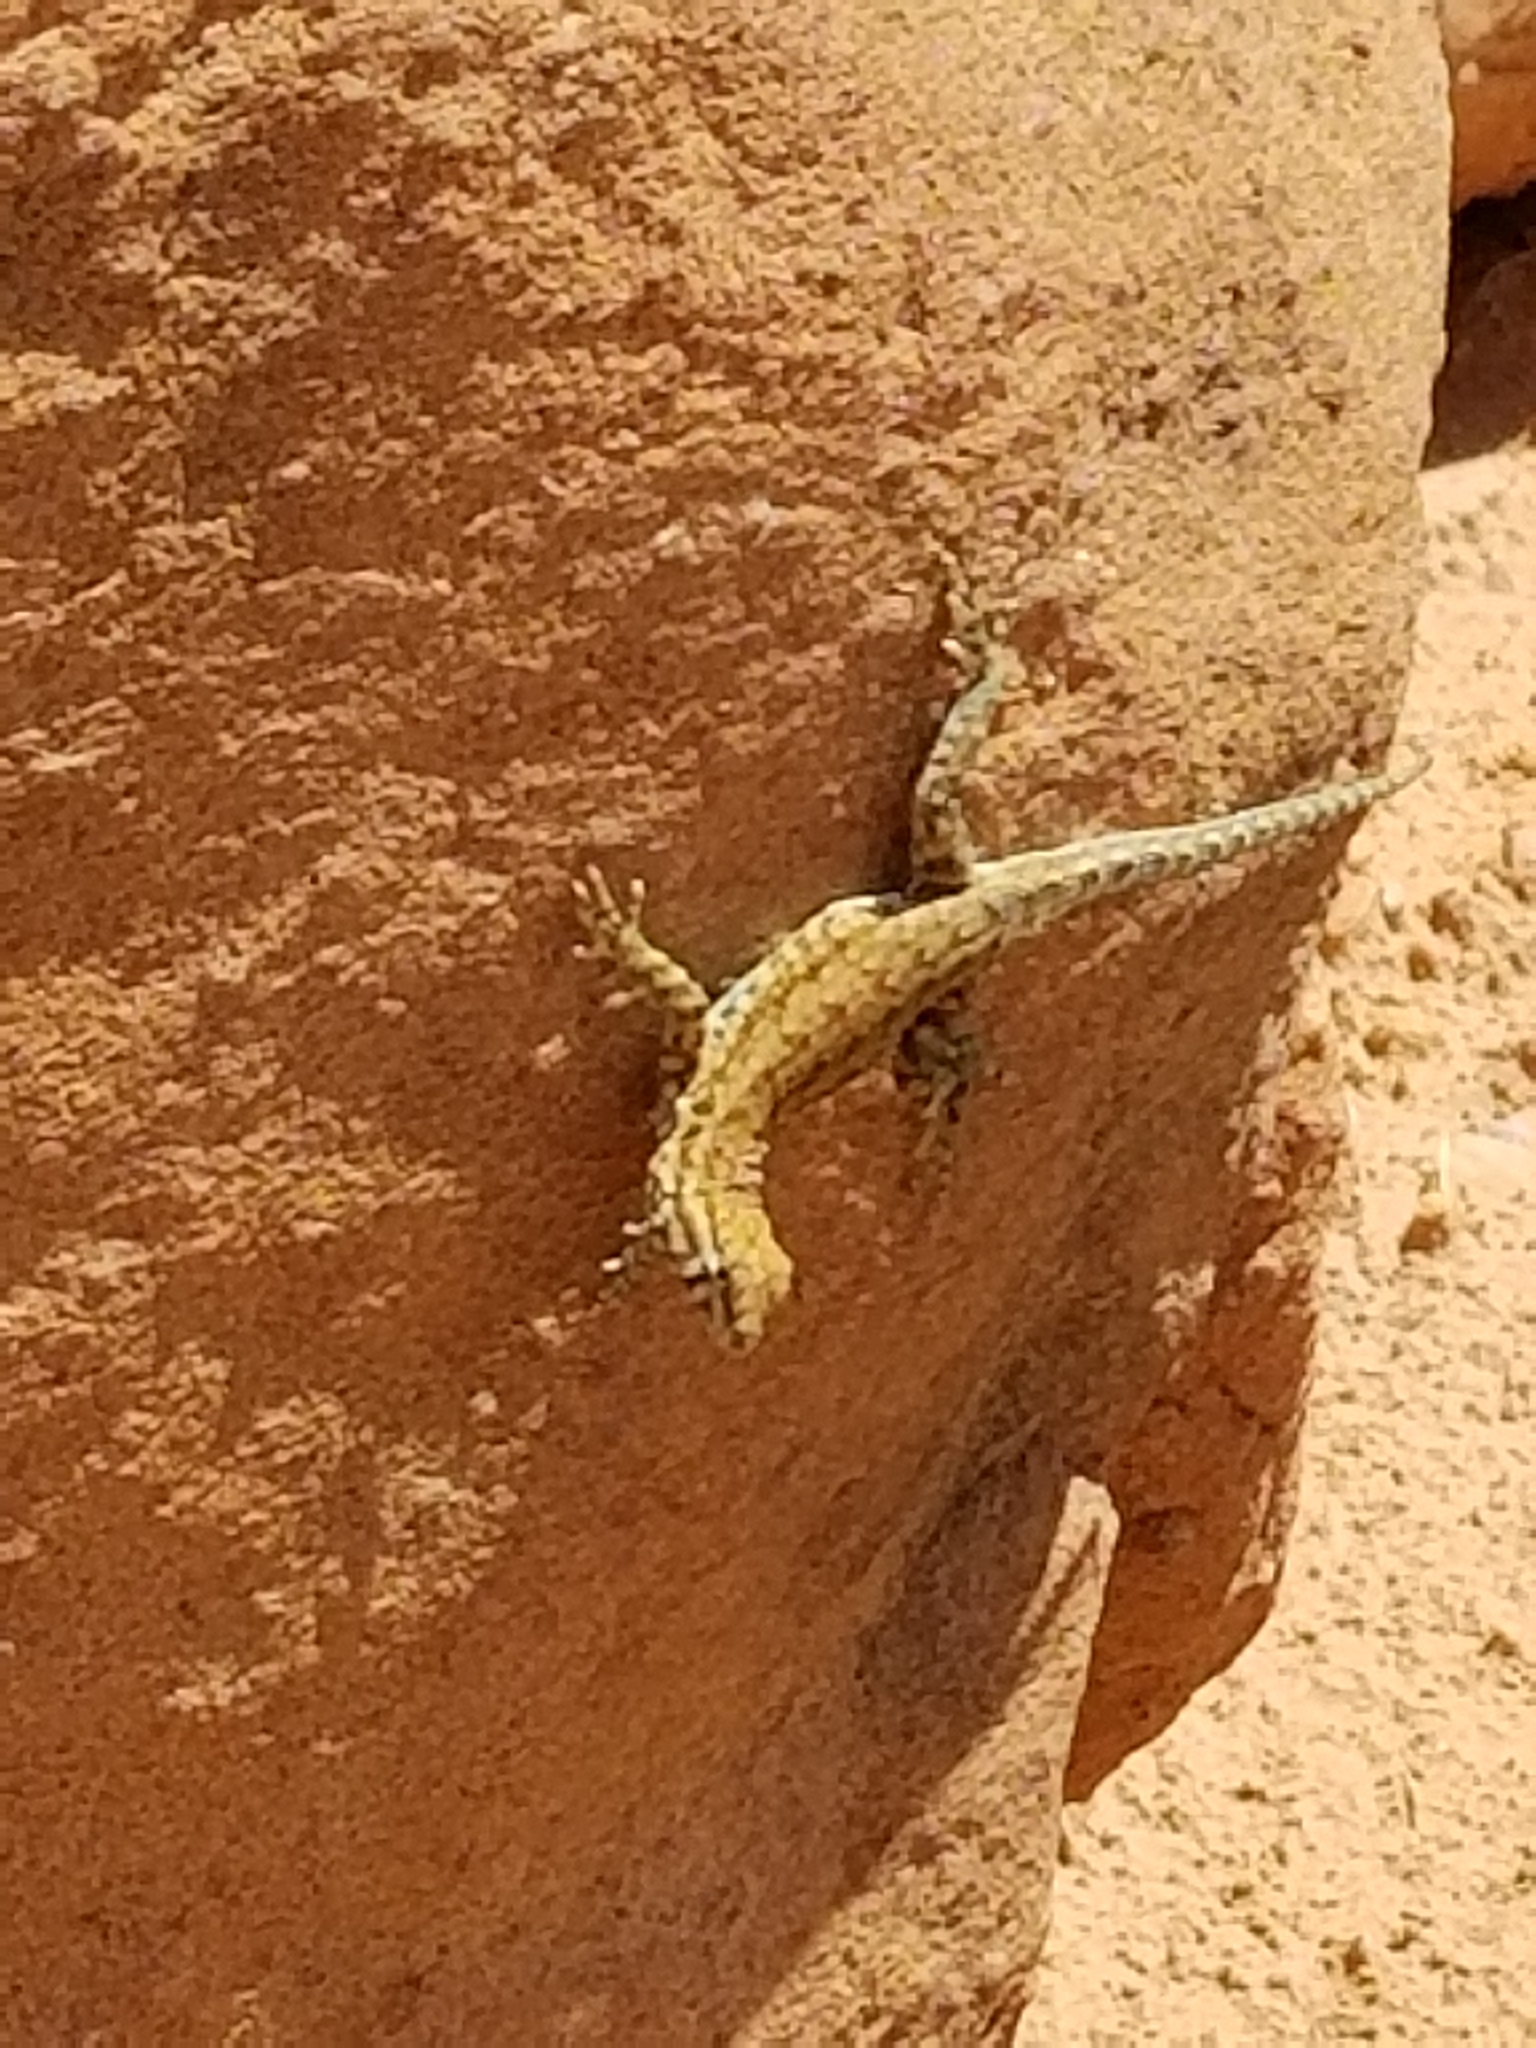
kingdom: Animalia
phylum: Chordata
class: Squamata
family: Phrynosomatidae
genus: Uta
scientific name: Uta stansburiana
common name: Side-blotched lizard
